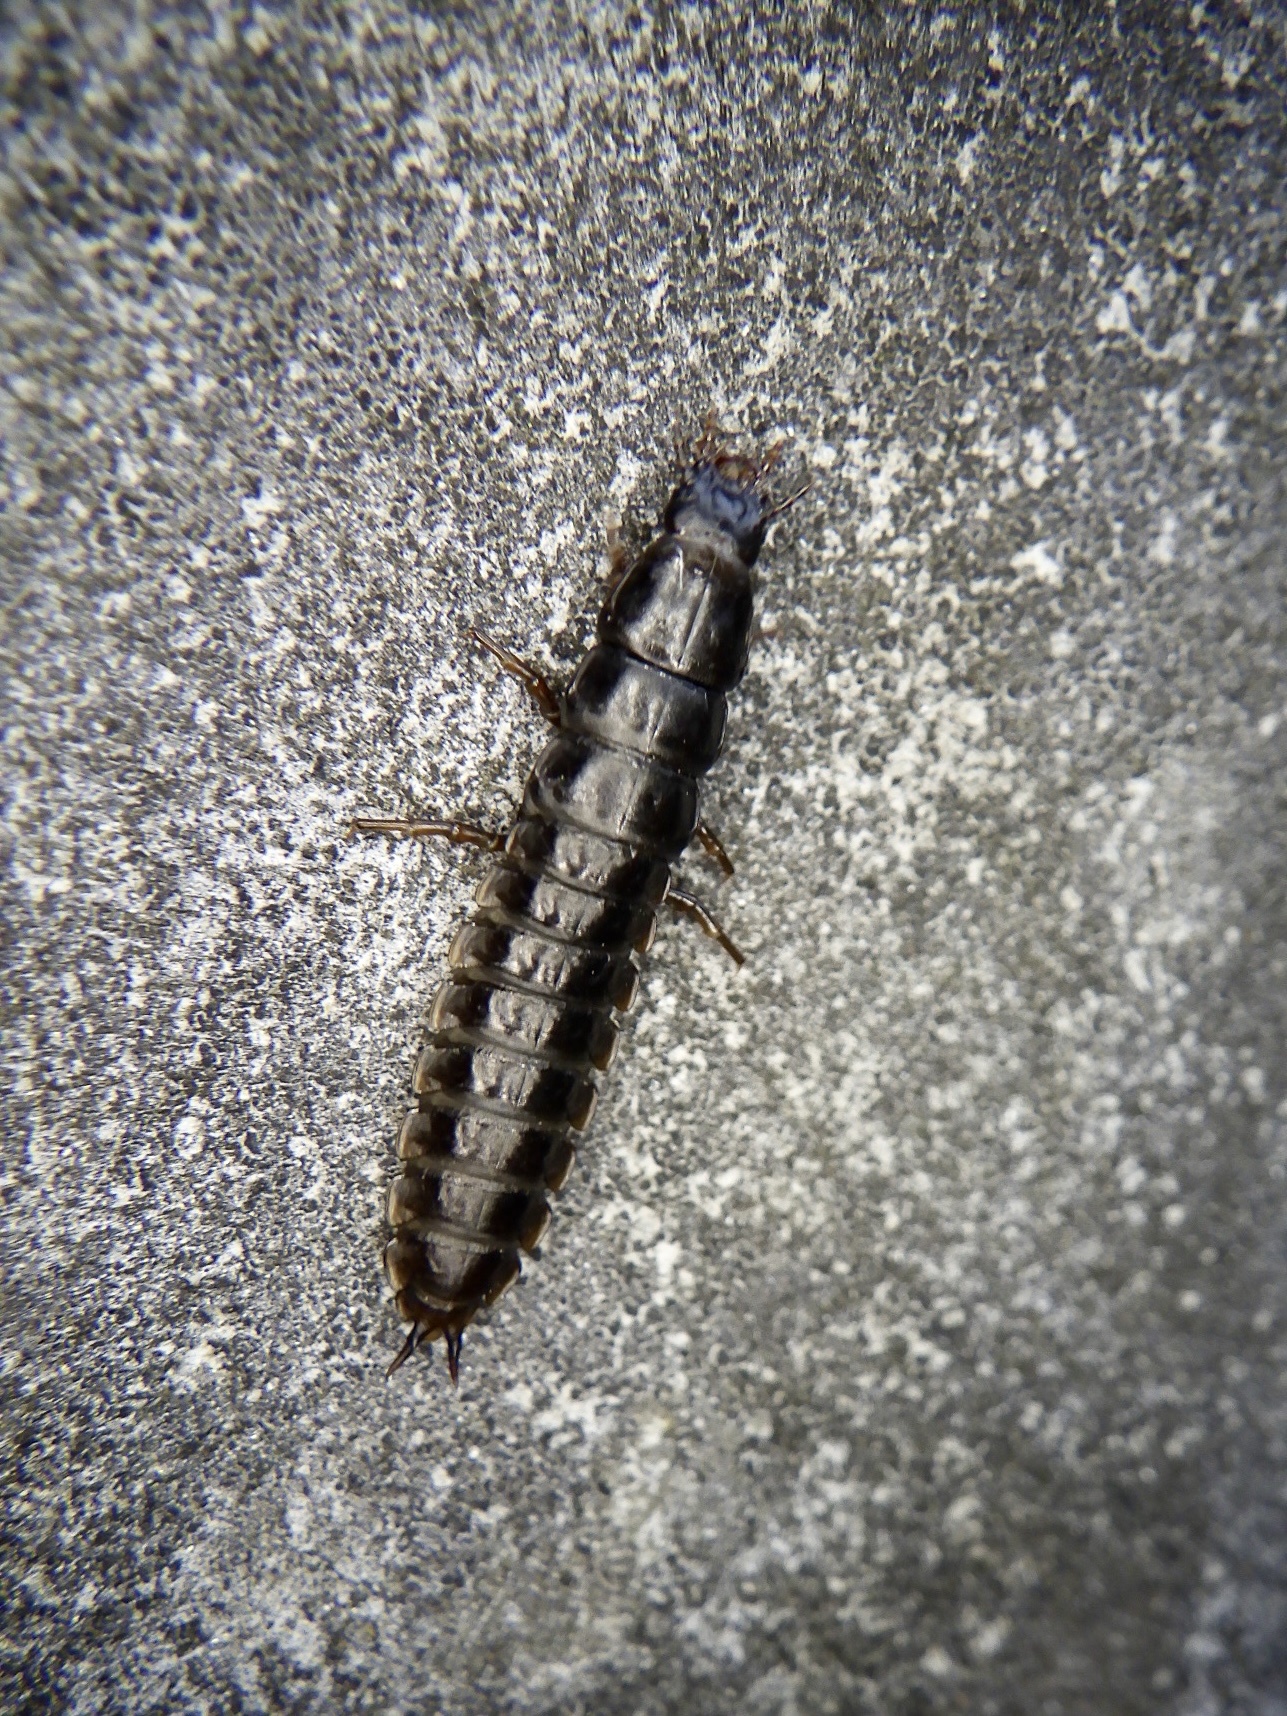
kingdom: Animalia
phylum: Arthropoda
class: Insecta
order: Coleoptera
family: Carabidae
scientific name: Carabidae
